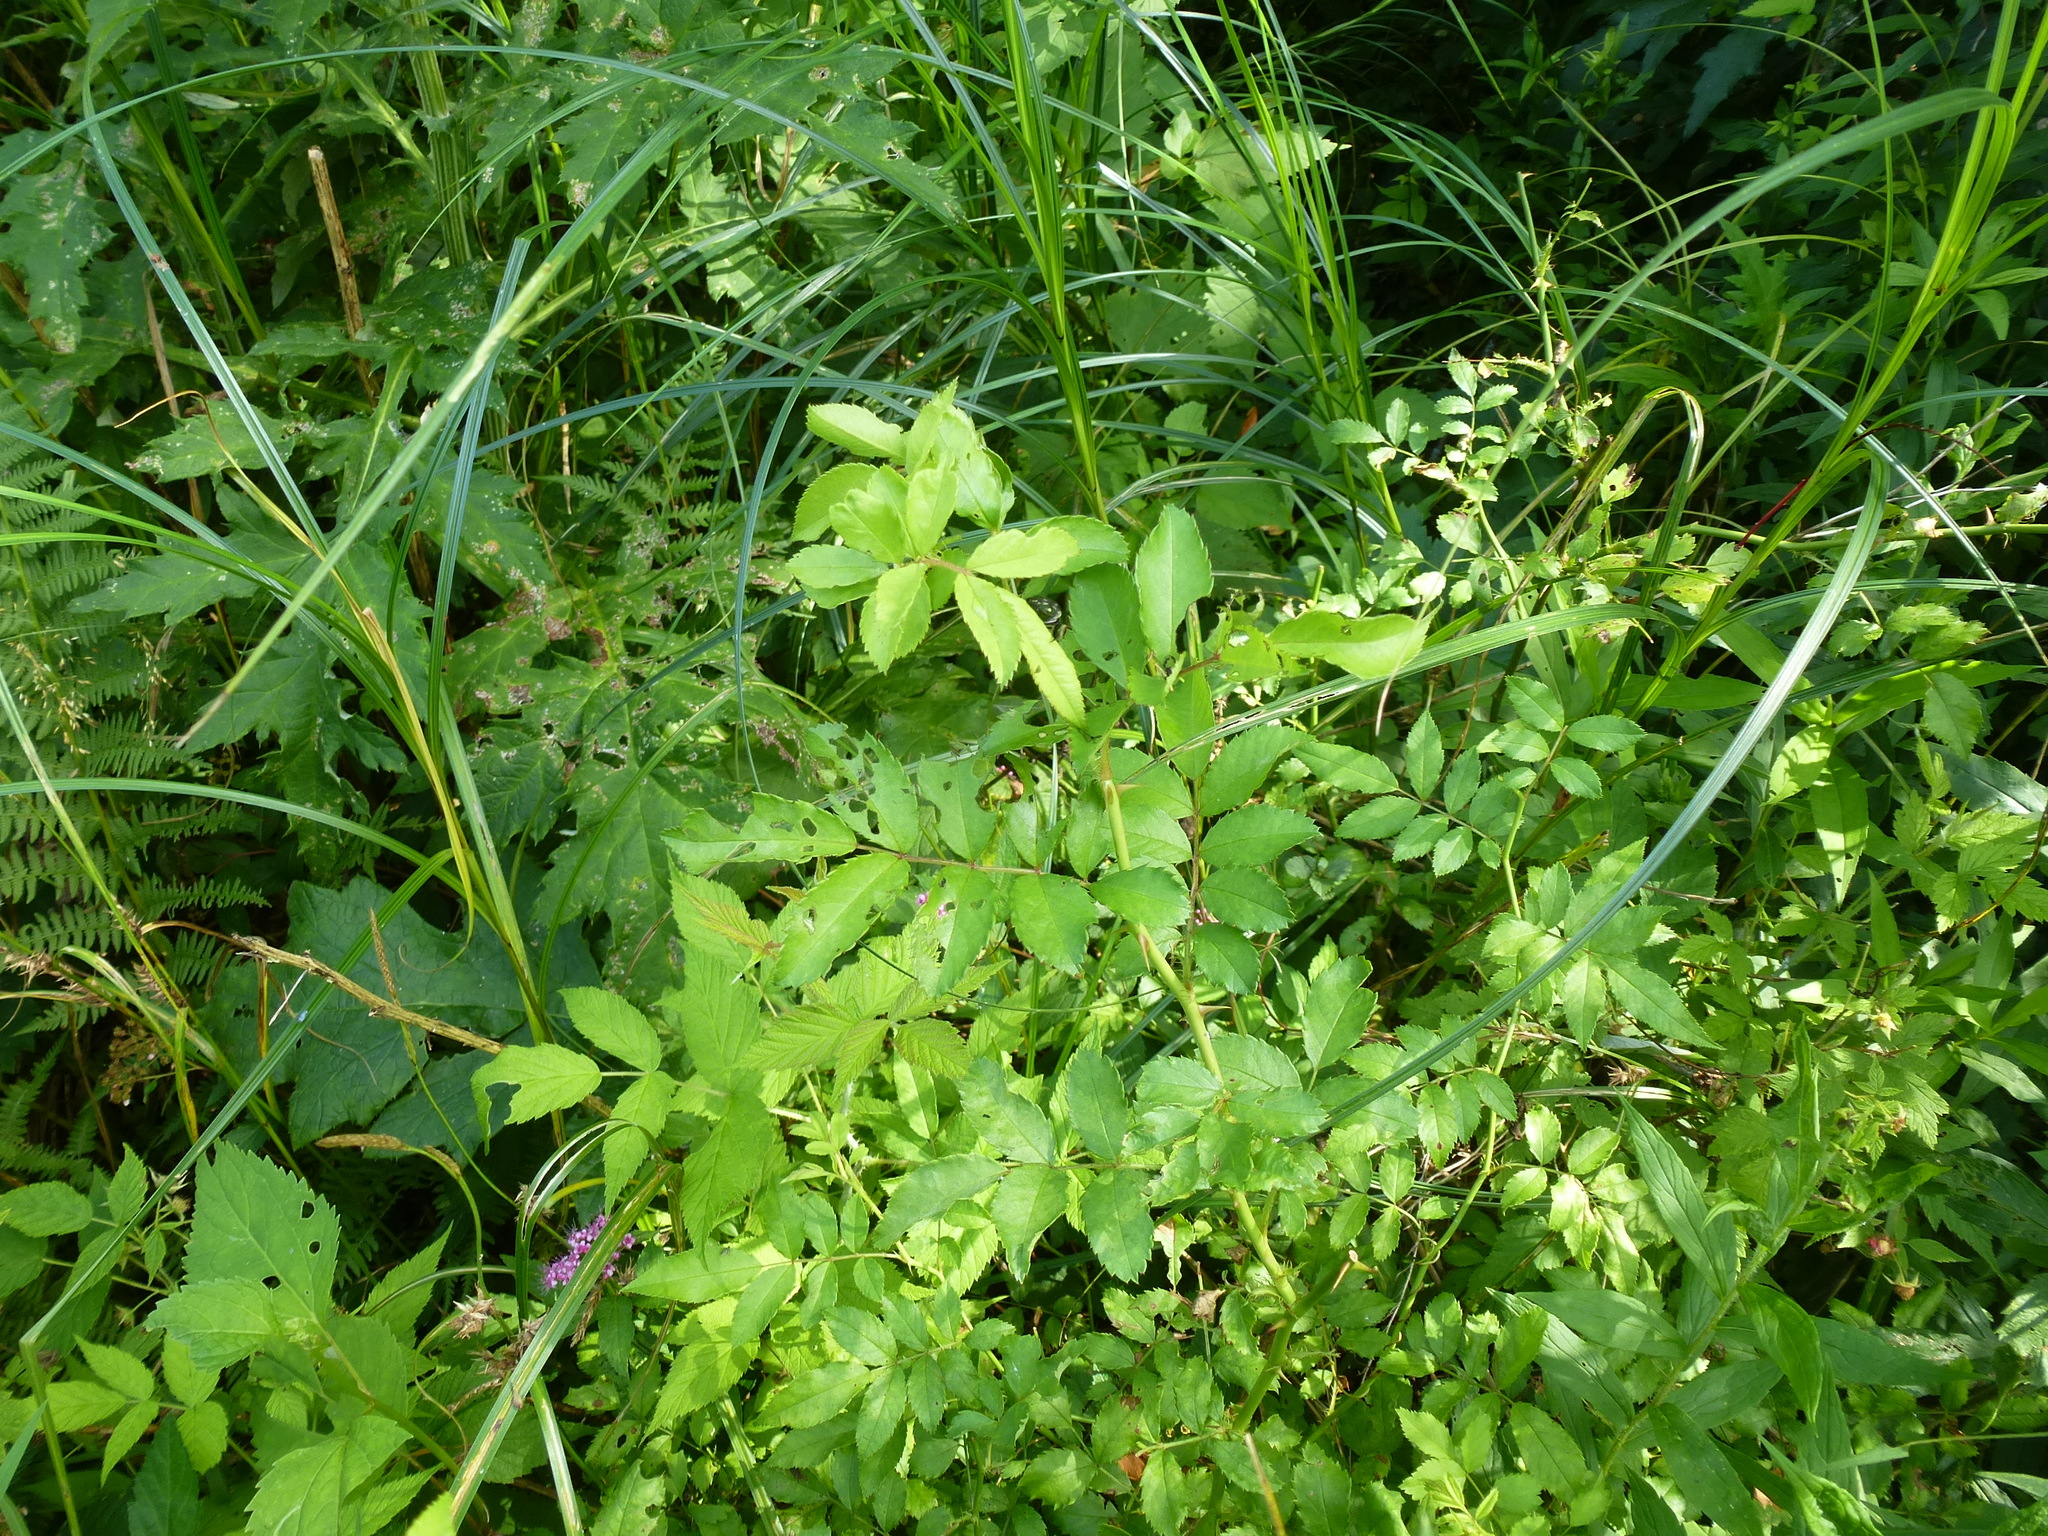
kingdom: Plantae
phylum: Tracheophyta
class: Magnoliopsida
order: Rosales
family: Rosaceae
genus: Rosa
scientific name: Rosa multiflora
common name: Multiflora rose
